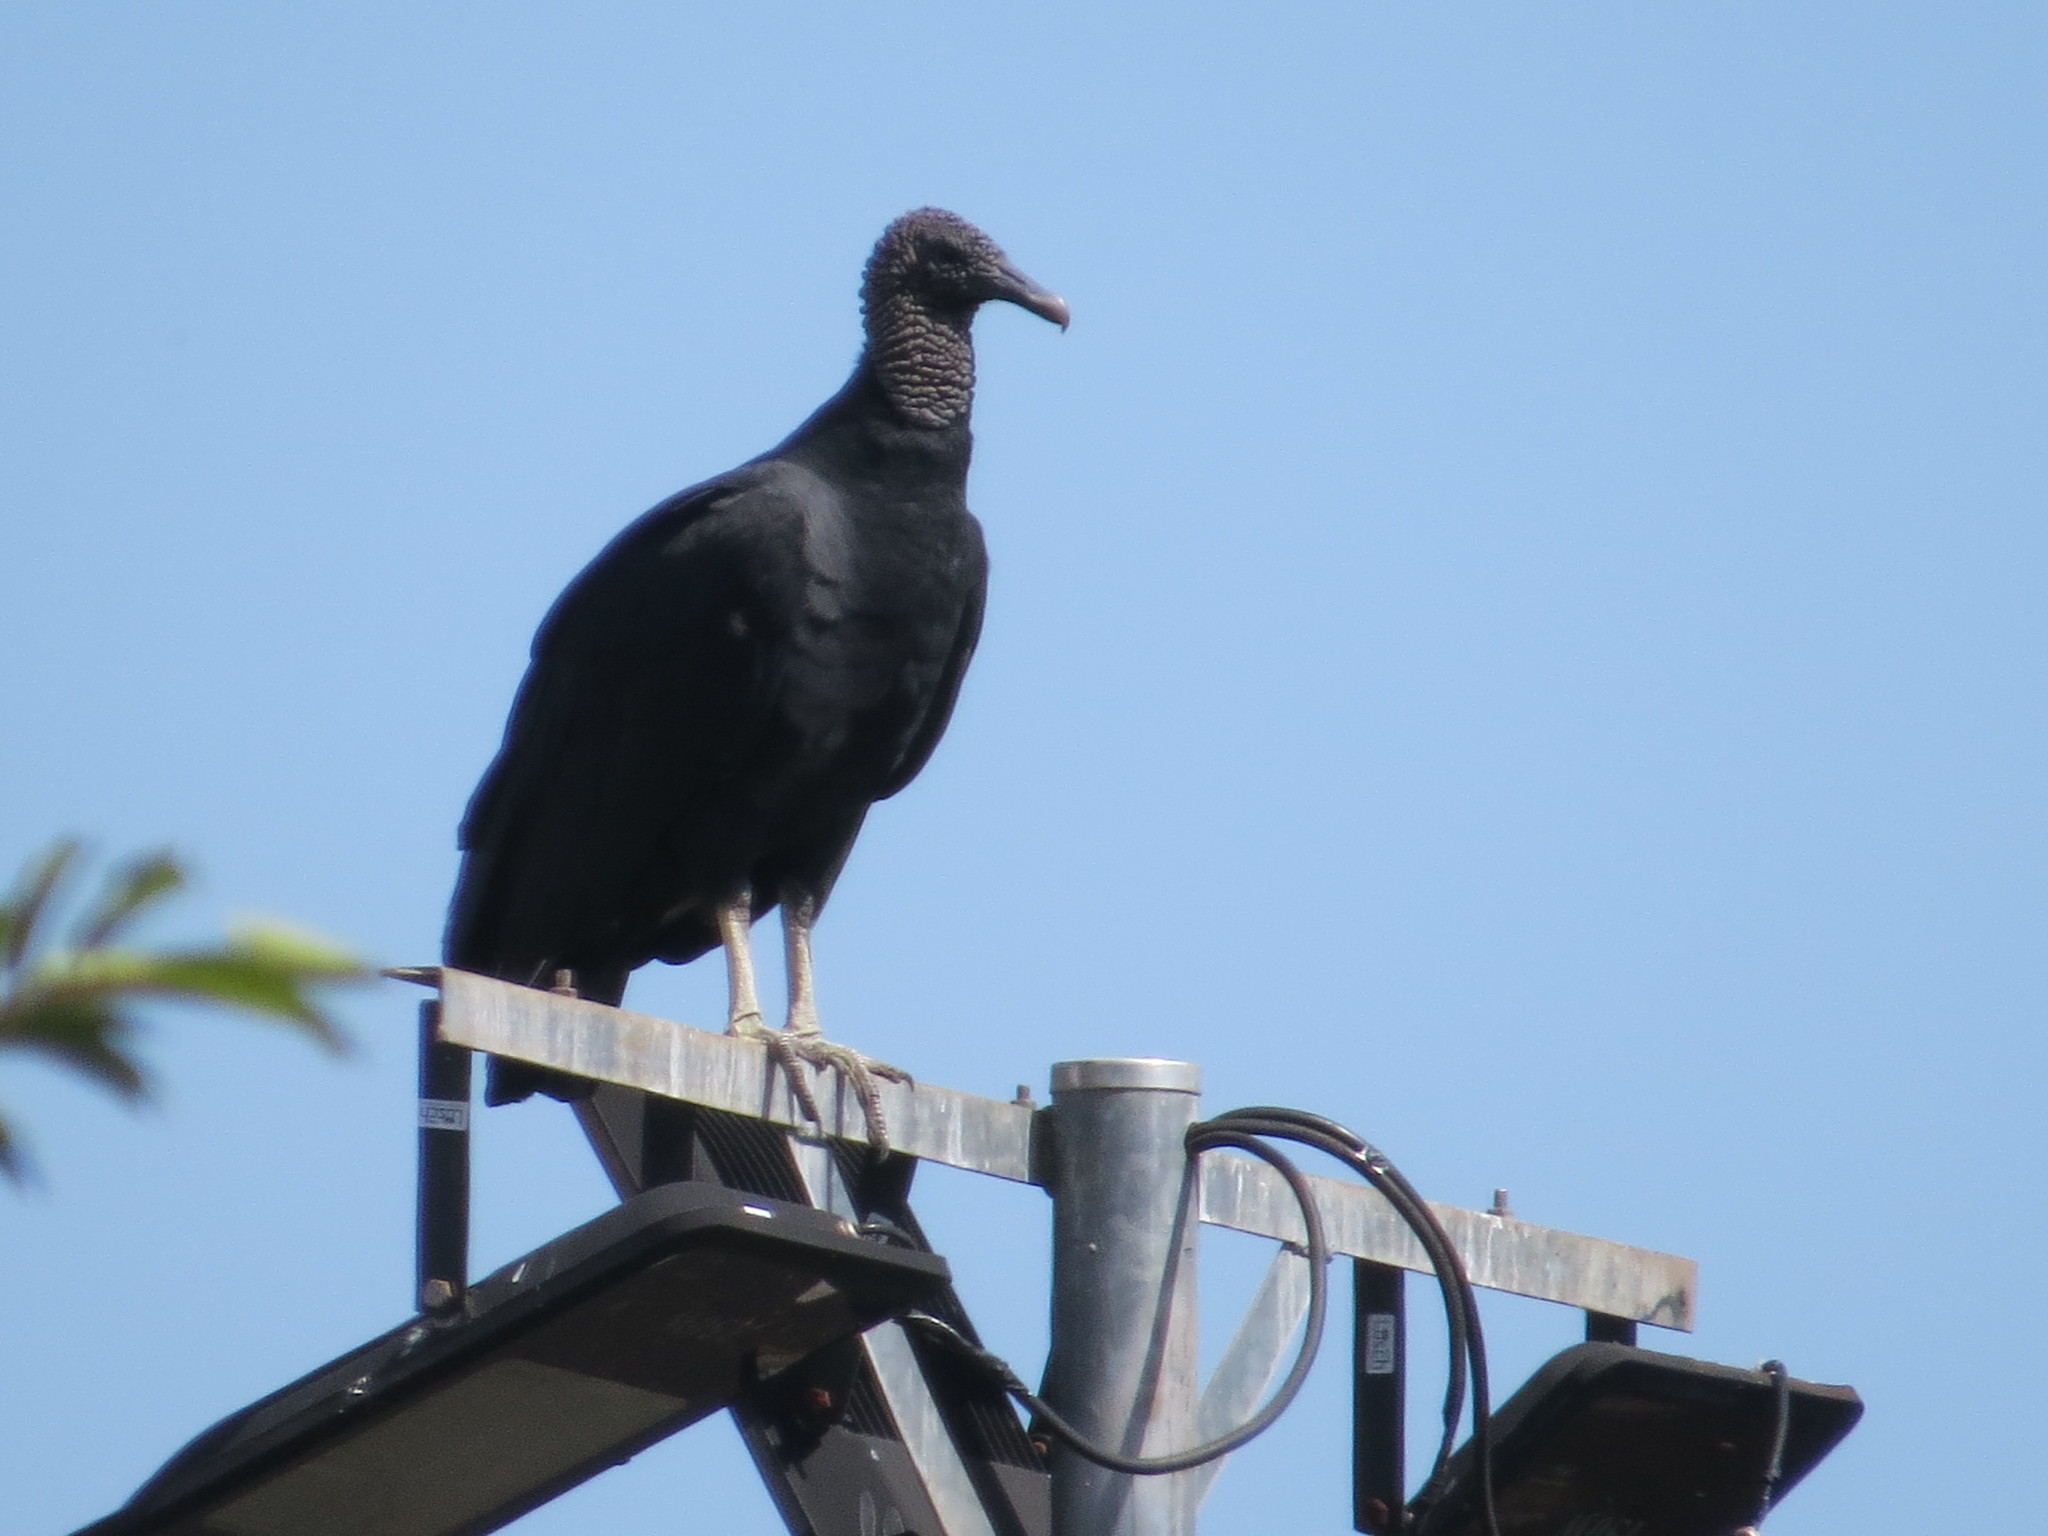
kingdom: Animalia
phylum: Chordata
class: Aves
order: Accipitriformes
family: Cathartidae
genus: Coragyps
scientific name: Coragyps atratus
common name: Black vulture
